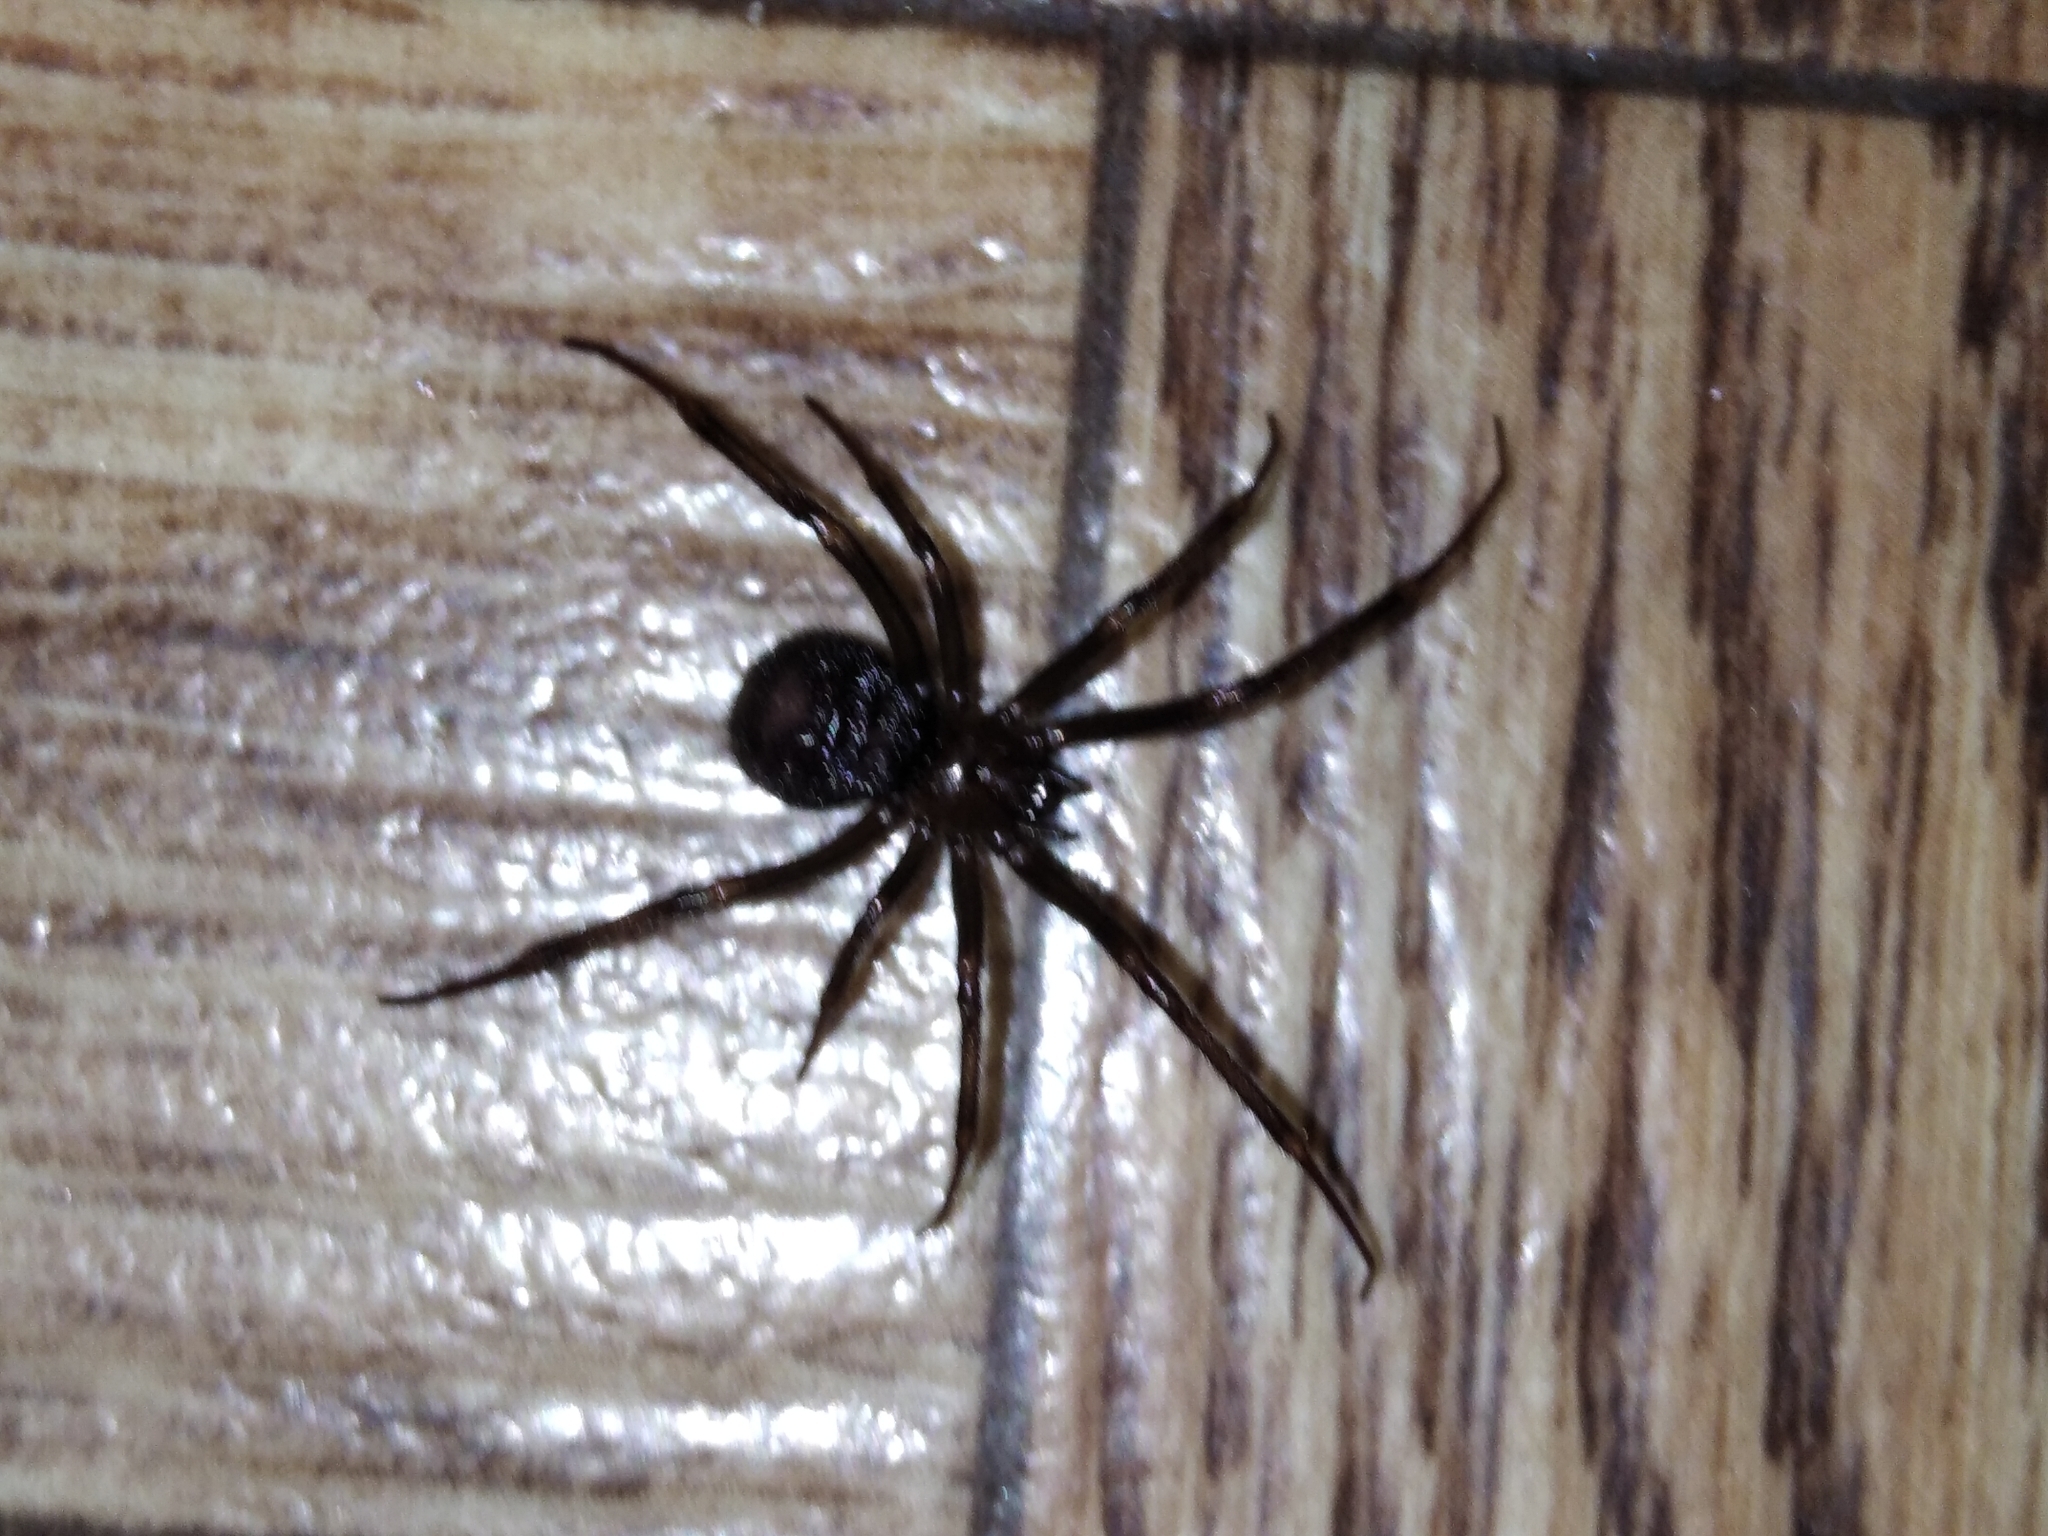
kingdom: Animalia
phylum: Arthropoda
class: Arachnida
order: Araneae
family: Theridiidae
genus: Steatoda
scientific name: Steatoda grossa
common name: False black widow
